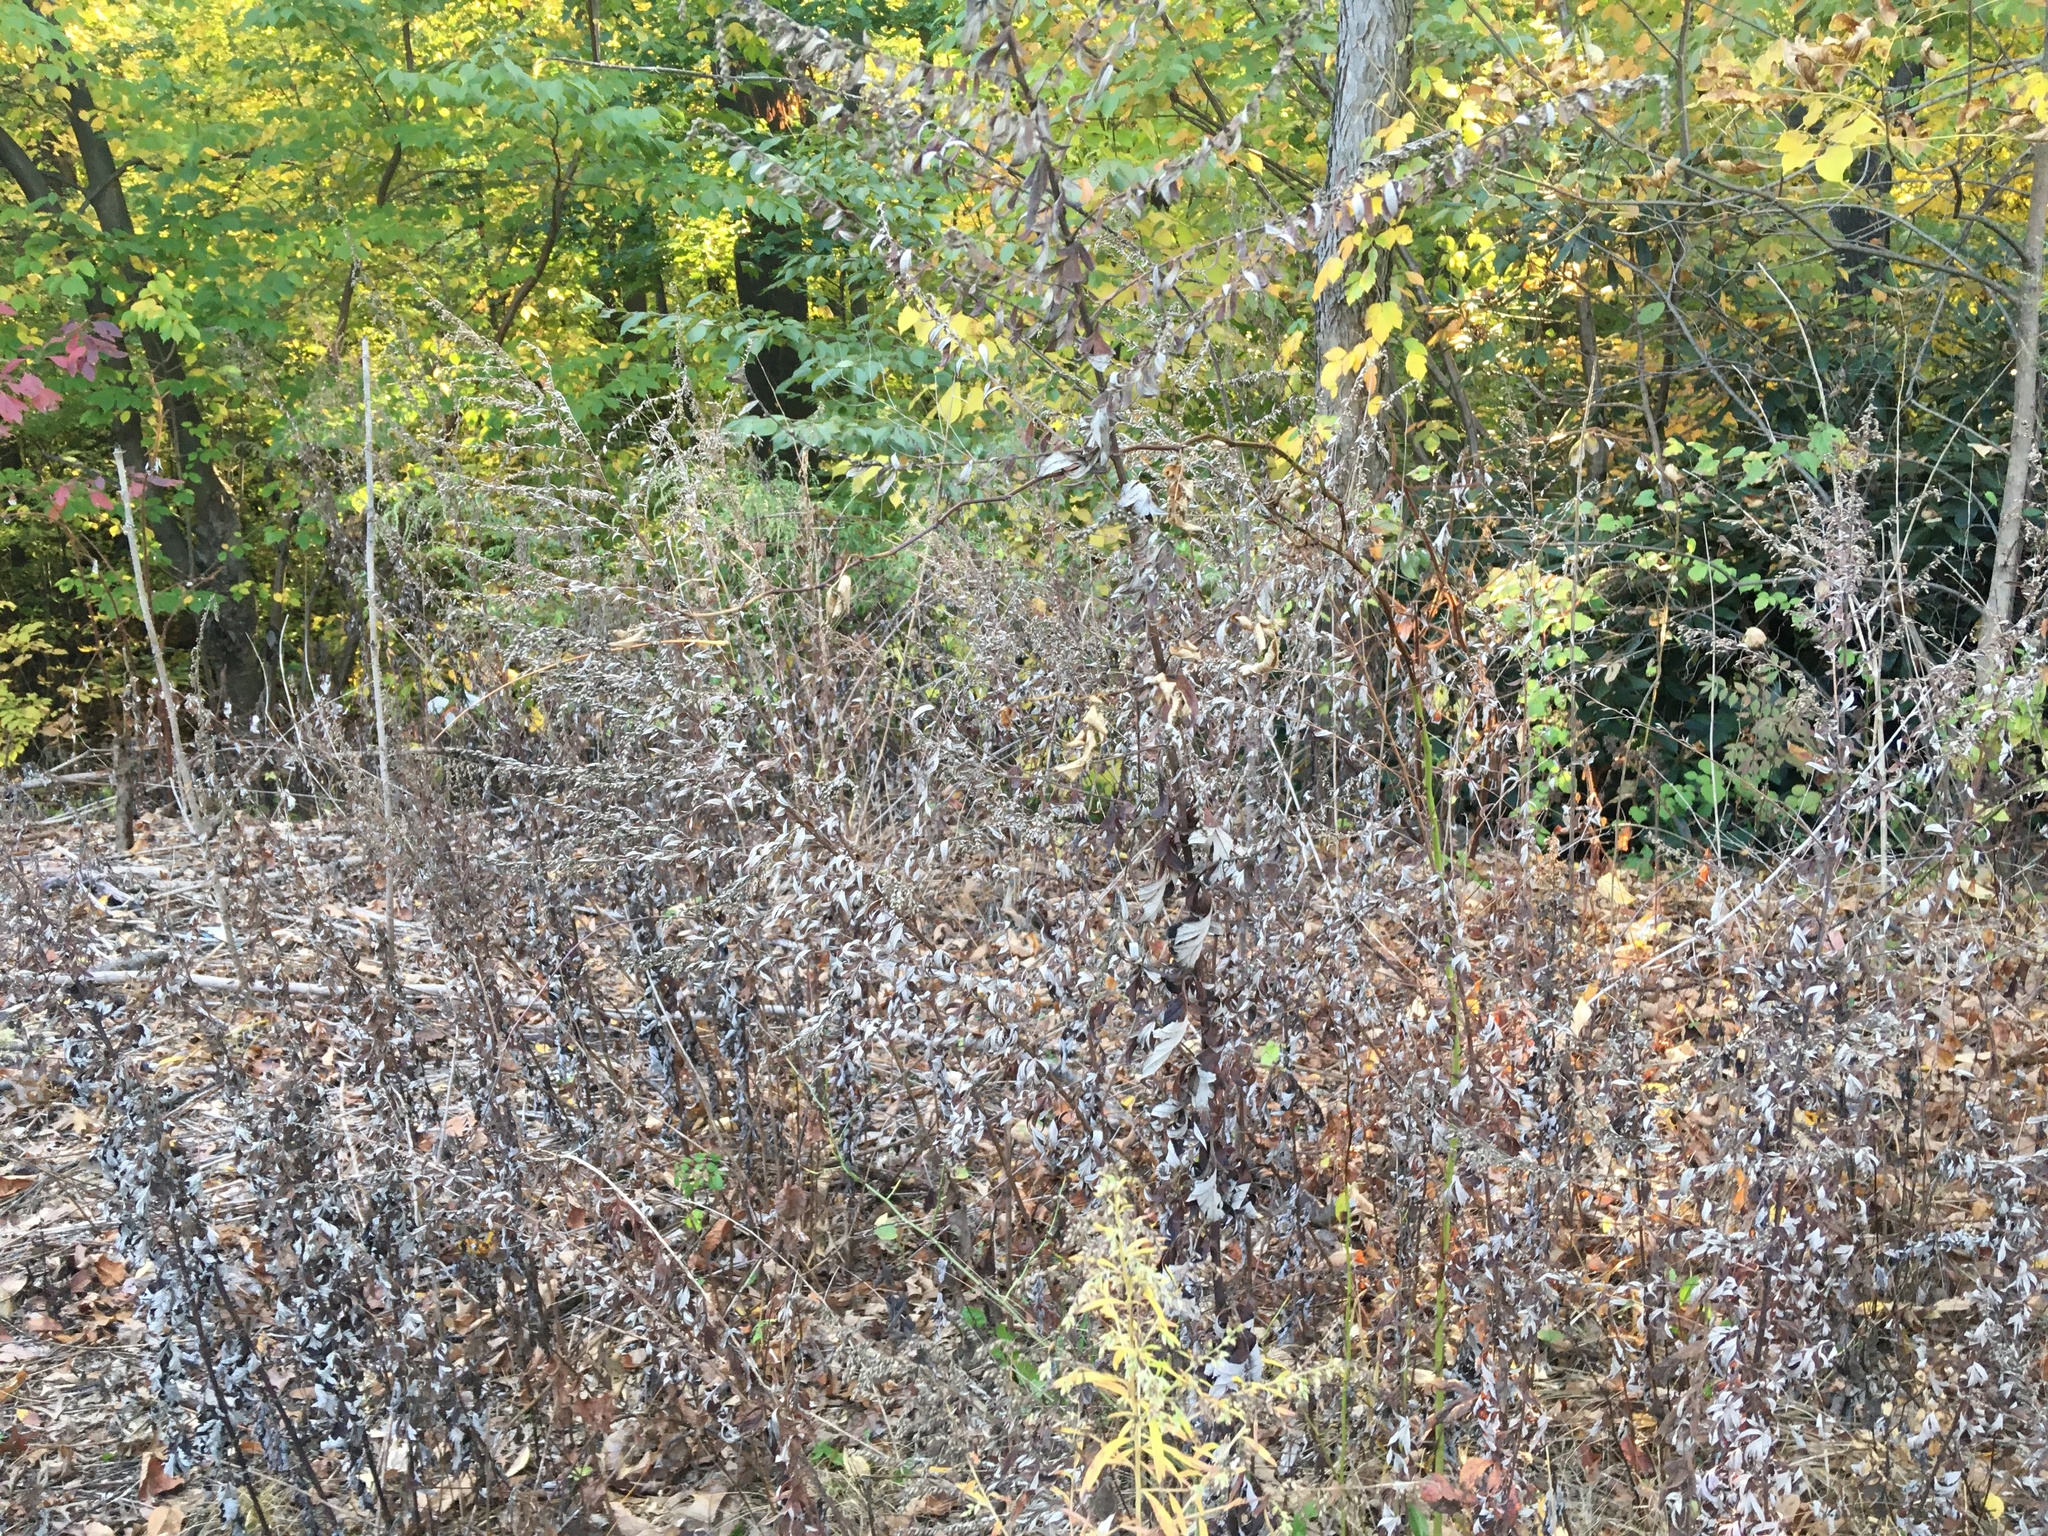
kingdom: Plantae
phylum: Tracheophyta
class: Magnoliopsida
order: Asterales
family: Asteraceae
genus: Artemisia
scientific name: Artemisia vulgaris
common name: Mugwort
